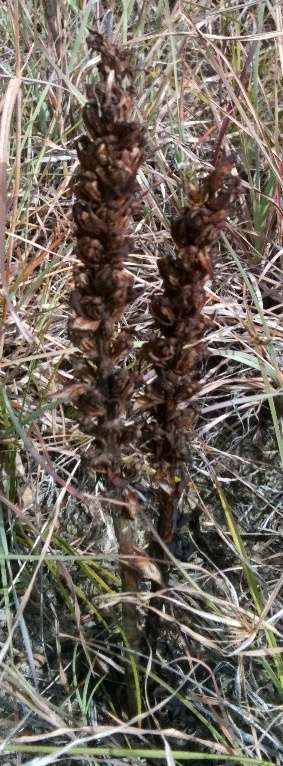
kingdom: Plantae
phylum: Tracheophyta
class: Liliopsida
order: Asparagales
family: Orchidaceae
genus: Disa
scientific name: Disa bracteata
